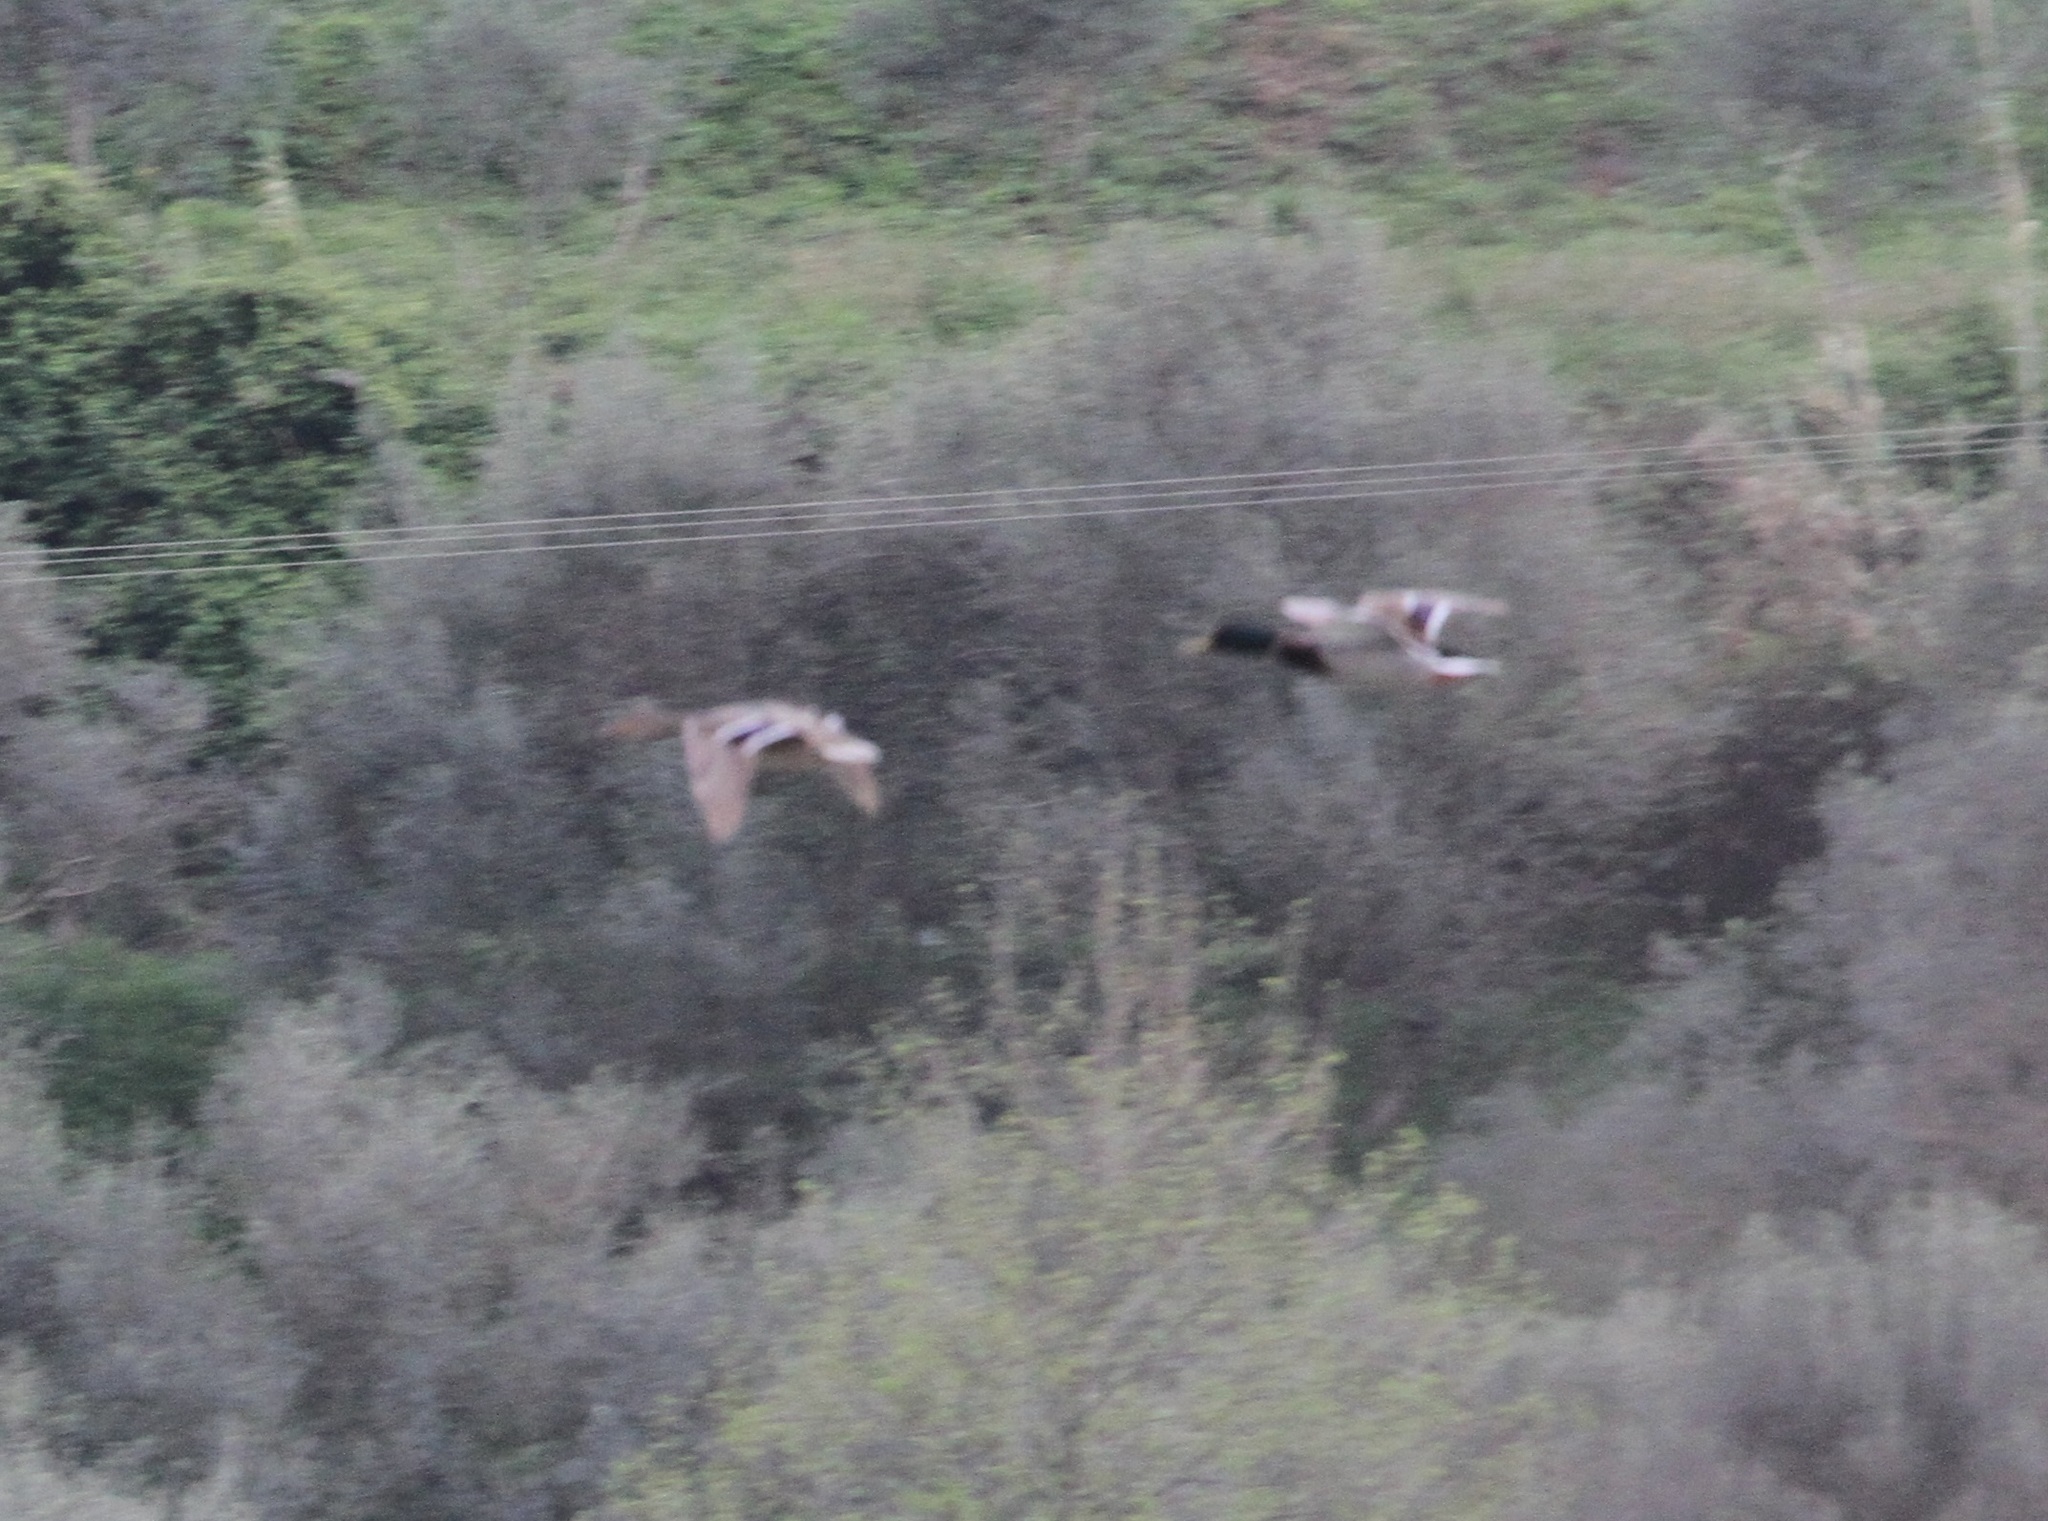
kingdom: Animalia
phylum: Chordata
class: Aves
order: Anseriformes
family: Anatidae
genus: Anas
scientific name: Anas platyrhynchos
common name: Mallard
